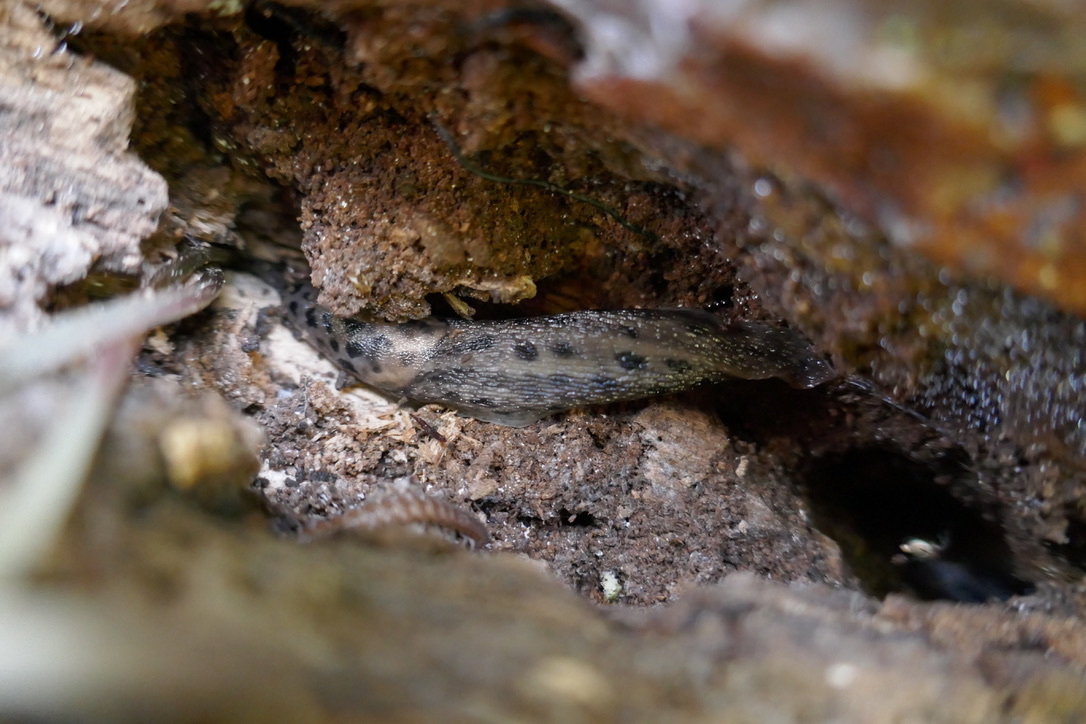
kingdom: Animalia
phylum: Mollusca
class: Gastropoda
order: Stylommatophora
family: Limacidae
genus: Limax
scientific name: Limax maximus
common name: Great grey slug
